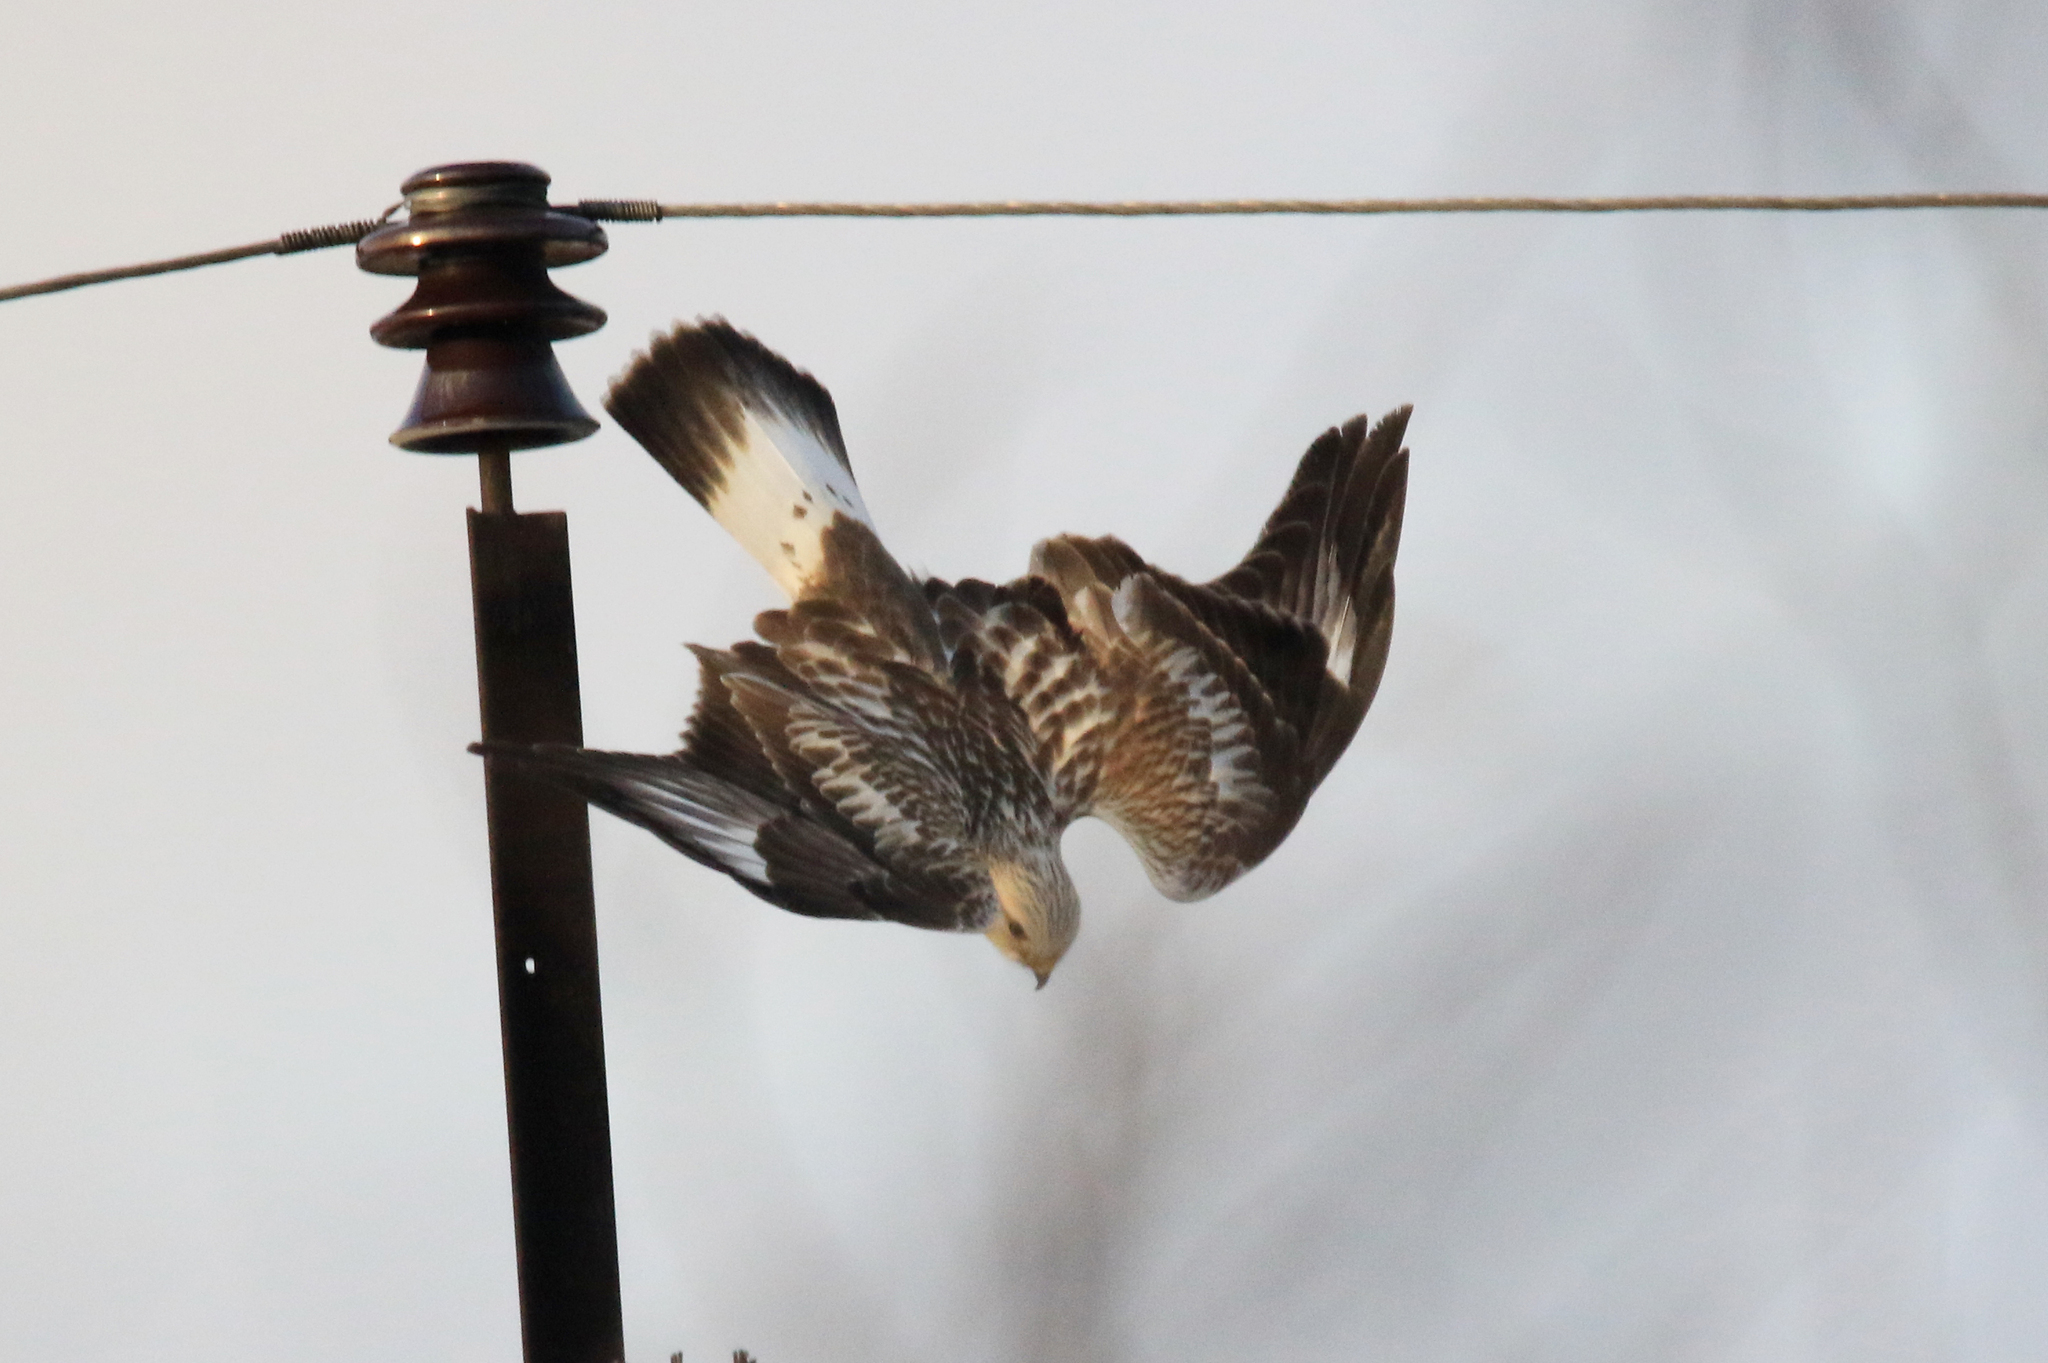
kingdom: Animalia
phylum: Chordata
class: Aves
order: Accipitriformes
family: Accipitridae
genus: Buteo
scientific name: Buteo lagopus
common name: Rough-legged buzzard
